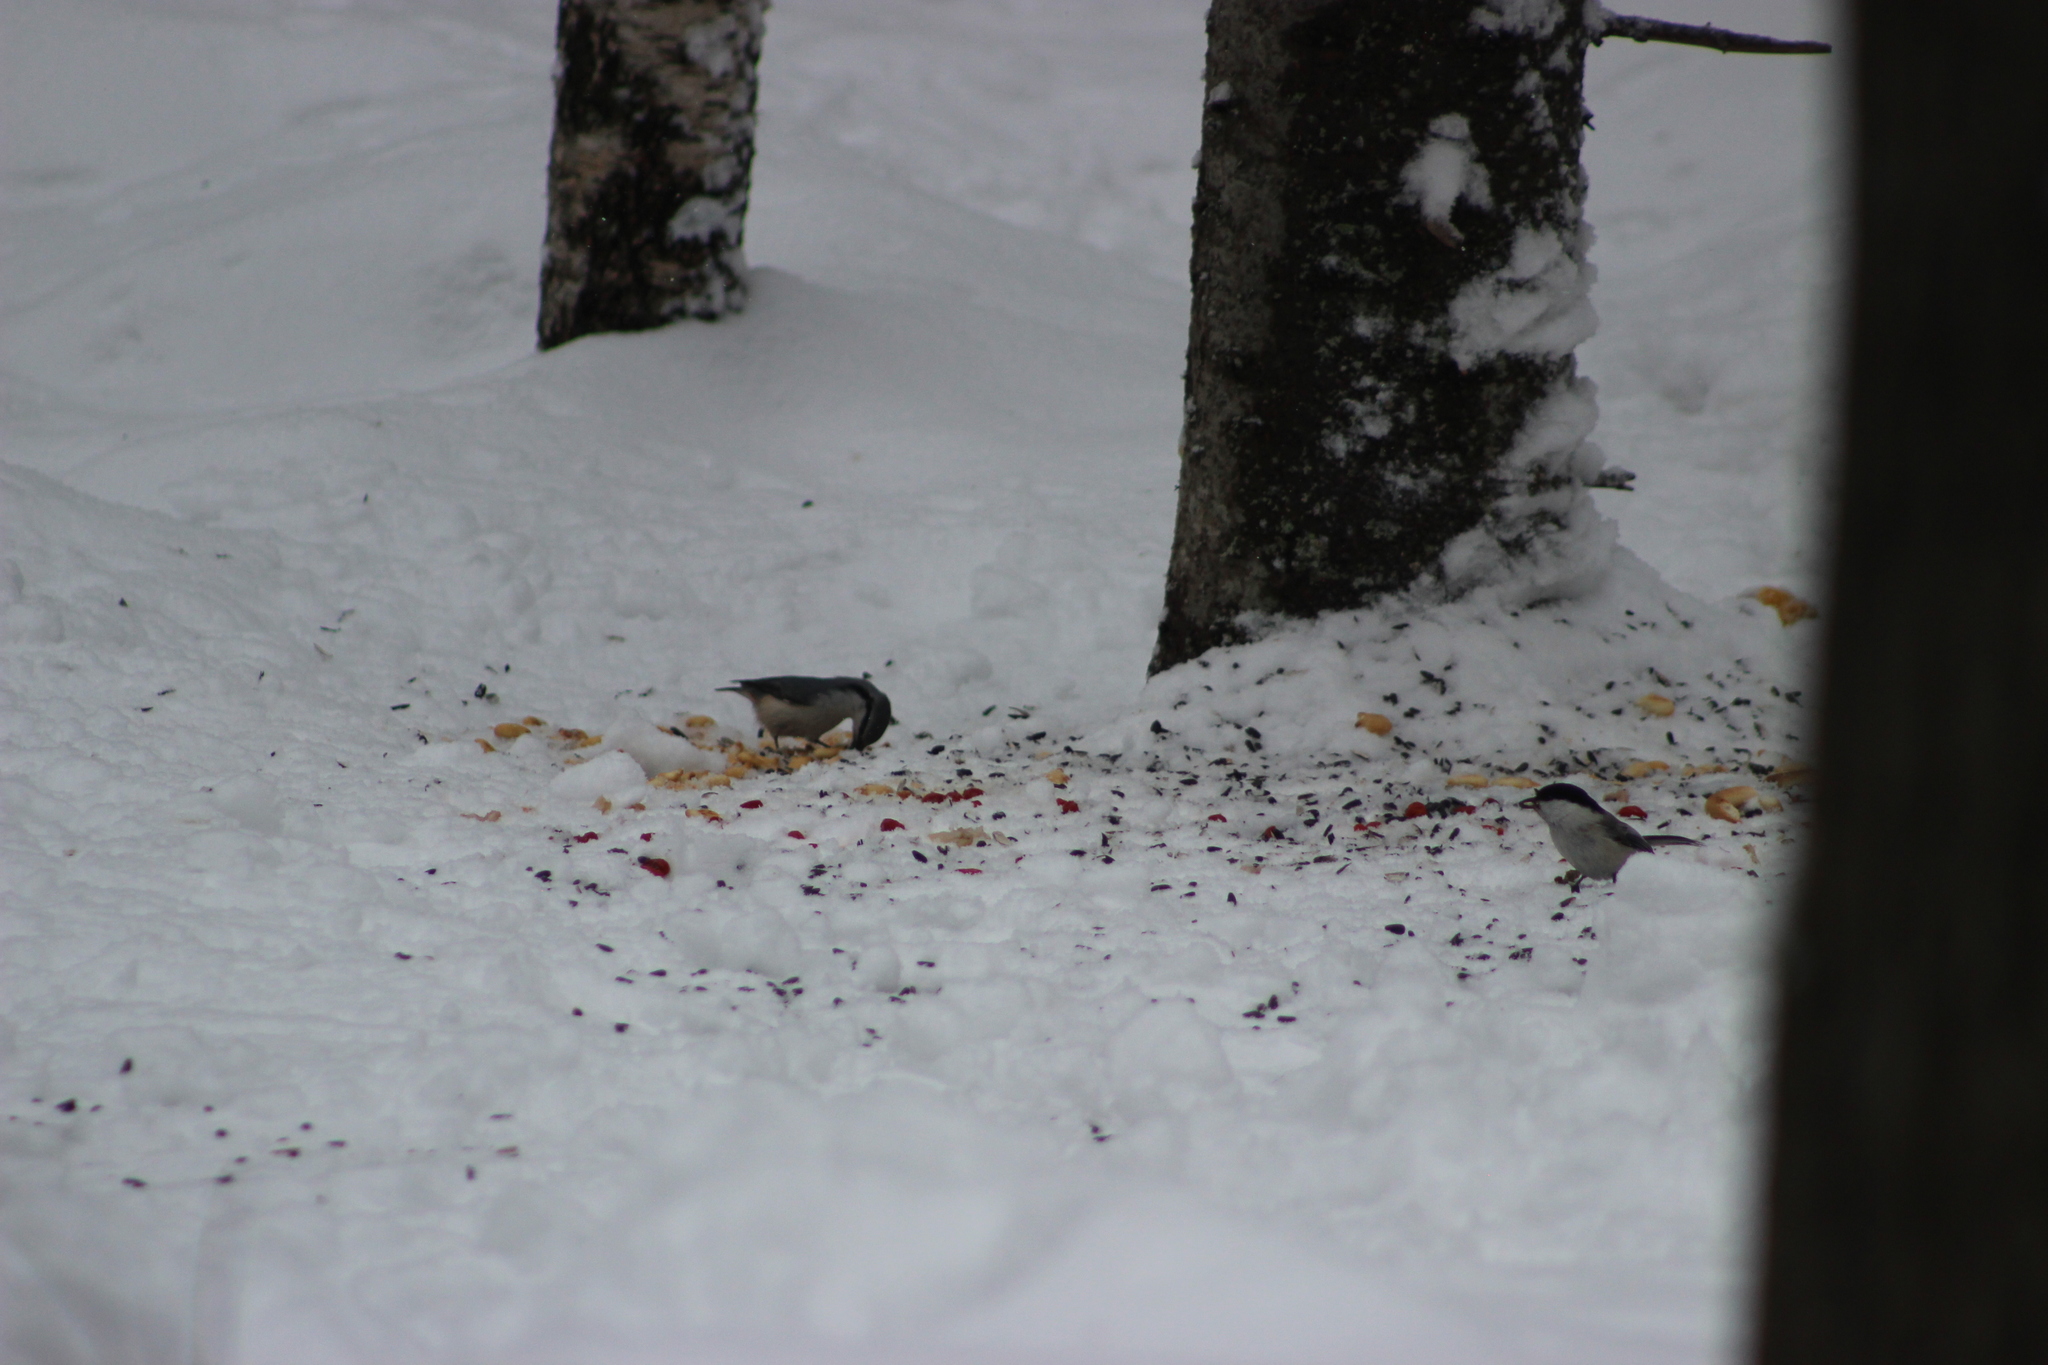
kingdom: Animalia
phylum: Chordata
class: Aves
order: Passeriformes
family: Sittidae
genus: Sitta
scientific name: Sitta europaea
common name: Eurasian nuthatch
